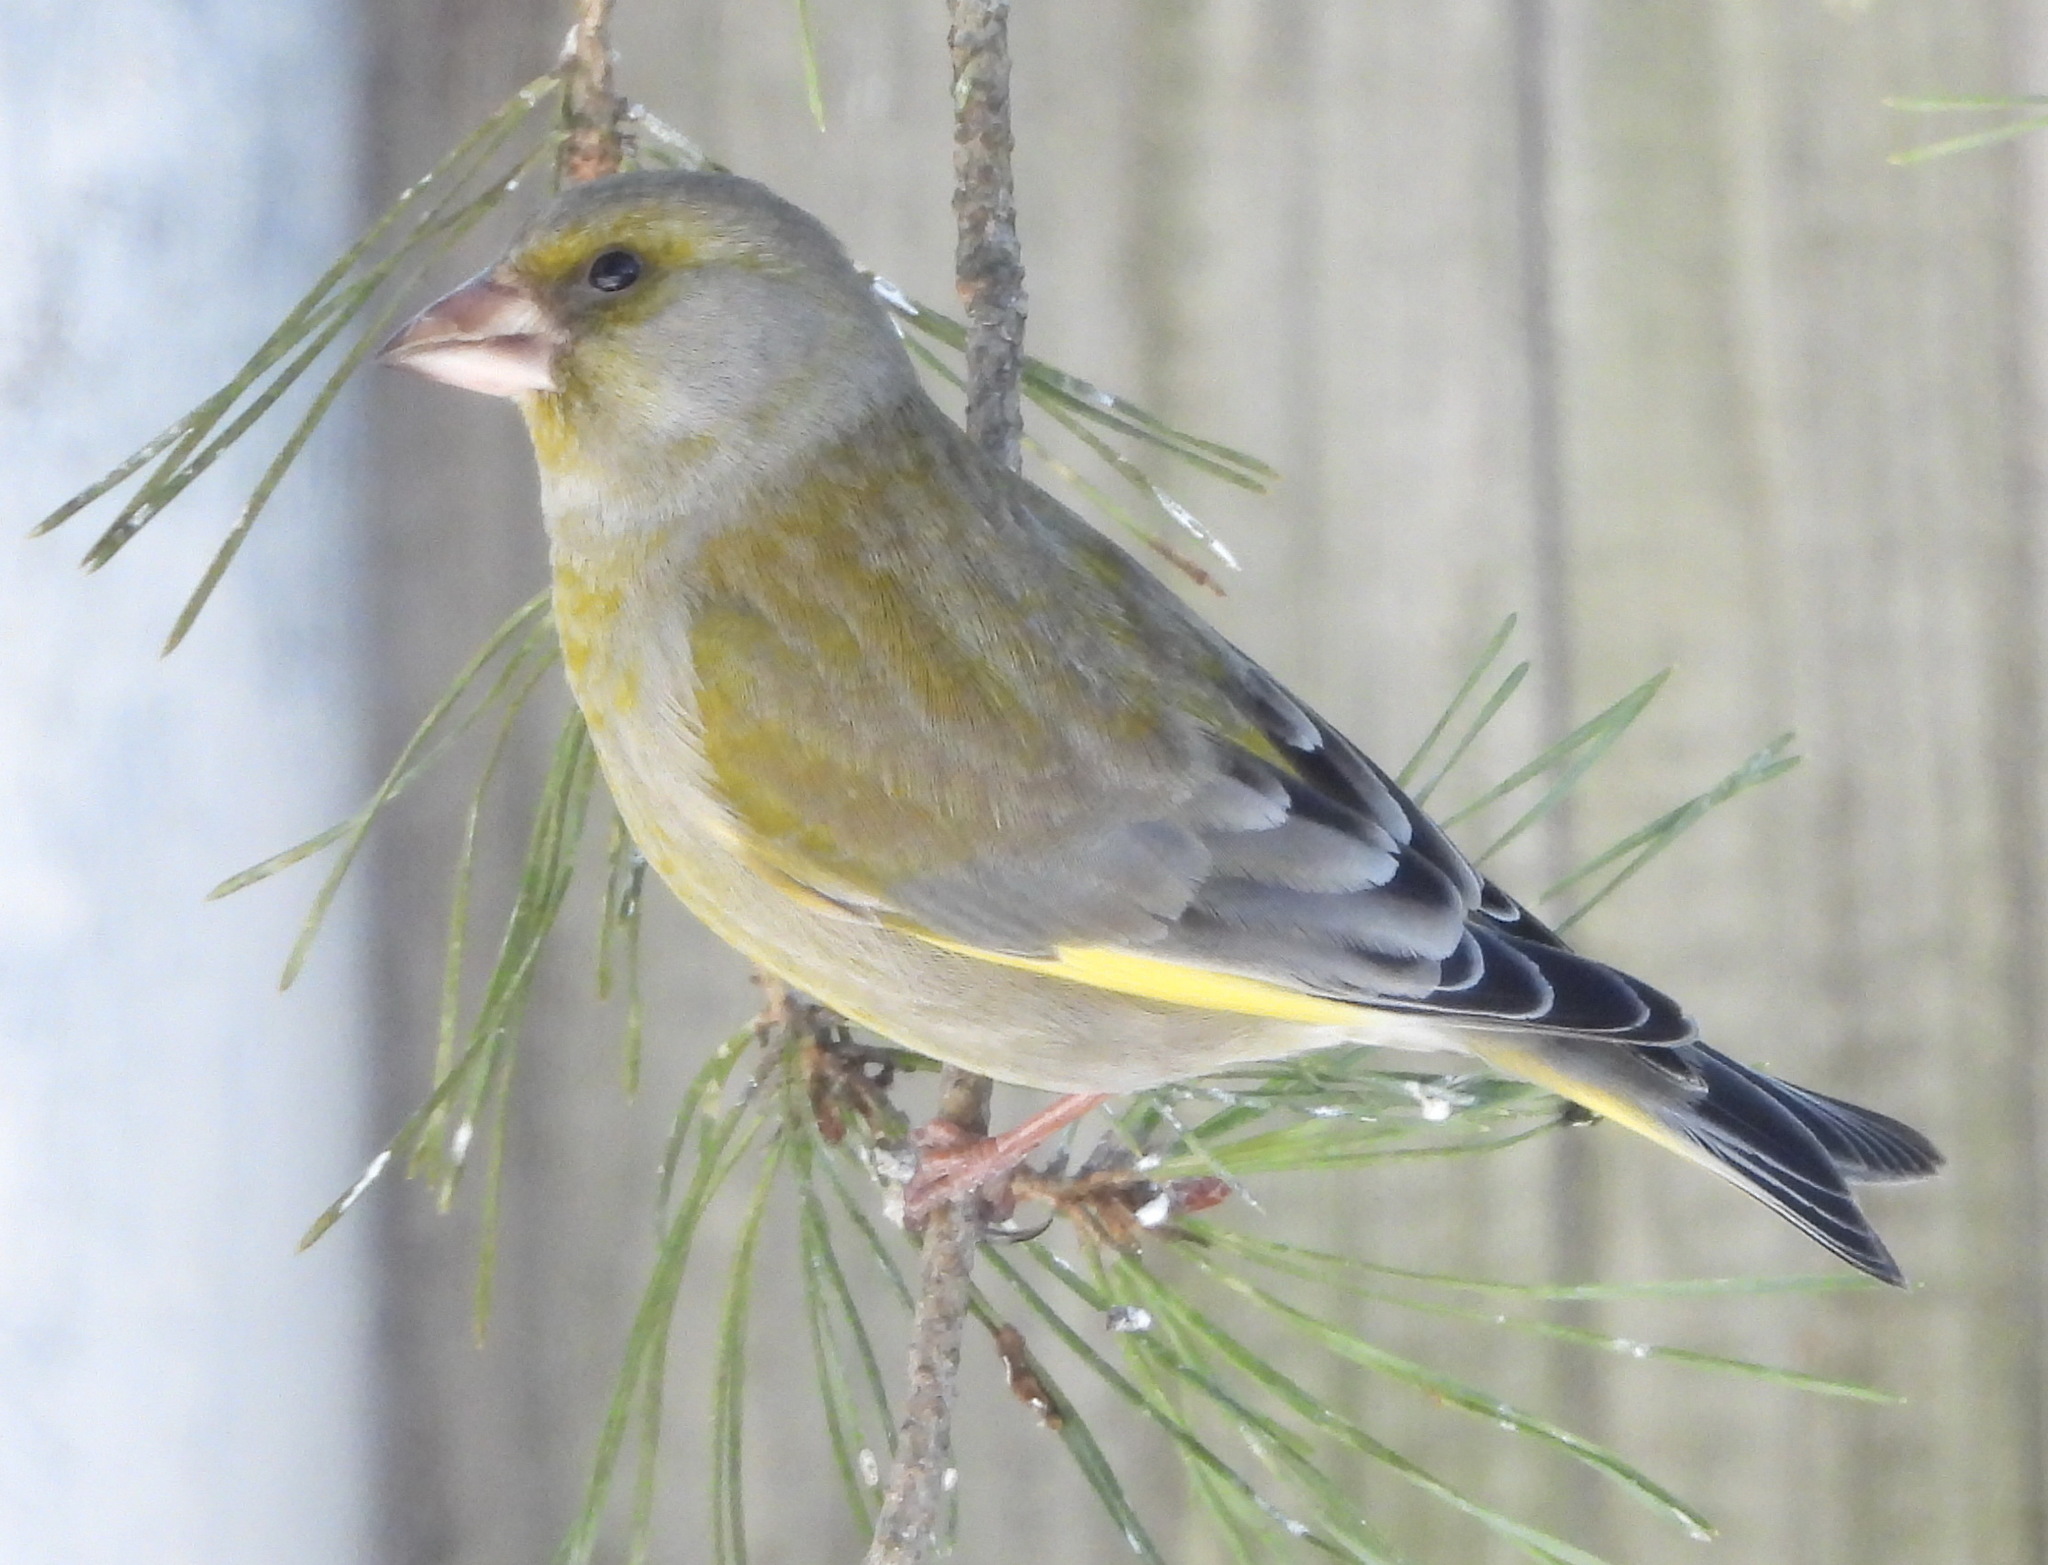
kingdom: Plantae
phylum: Tracheophyta
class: Liliopsida
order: Poales
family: Poaceae
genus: Chloris
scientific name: Chloris chloris
